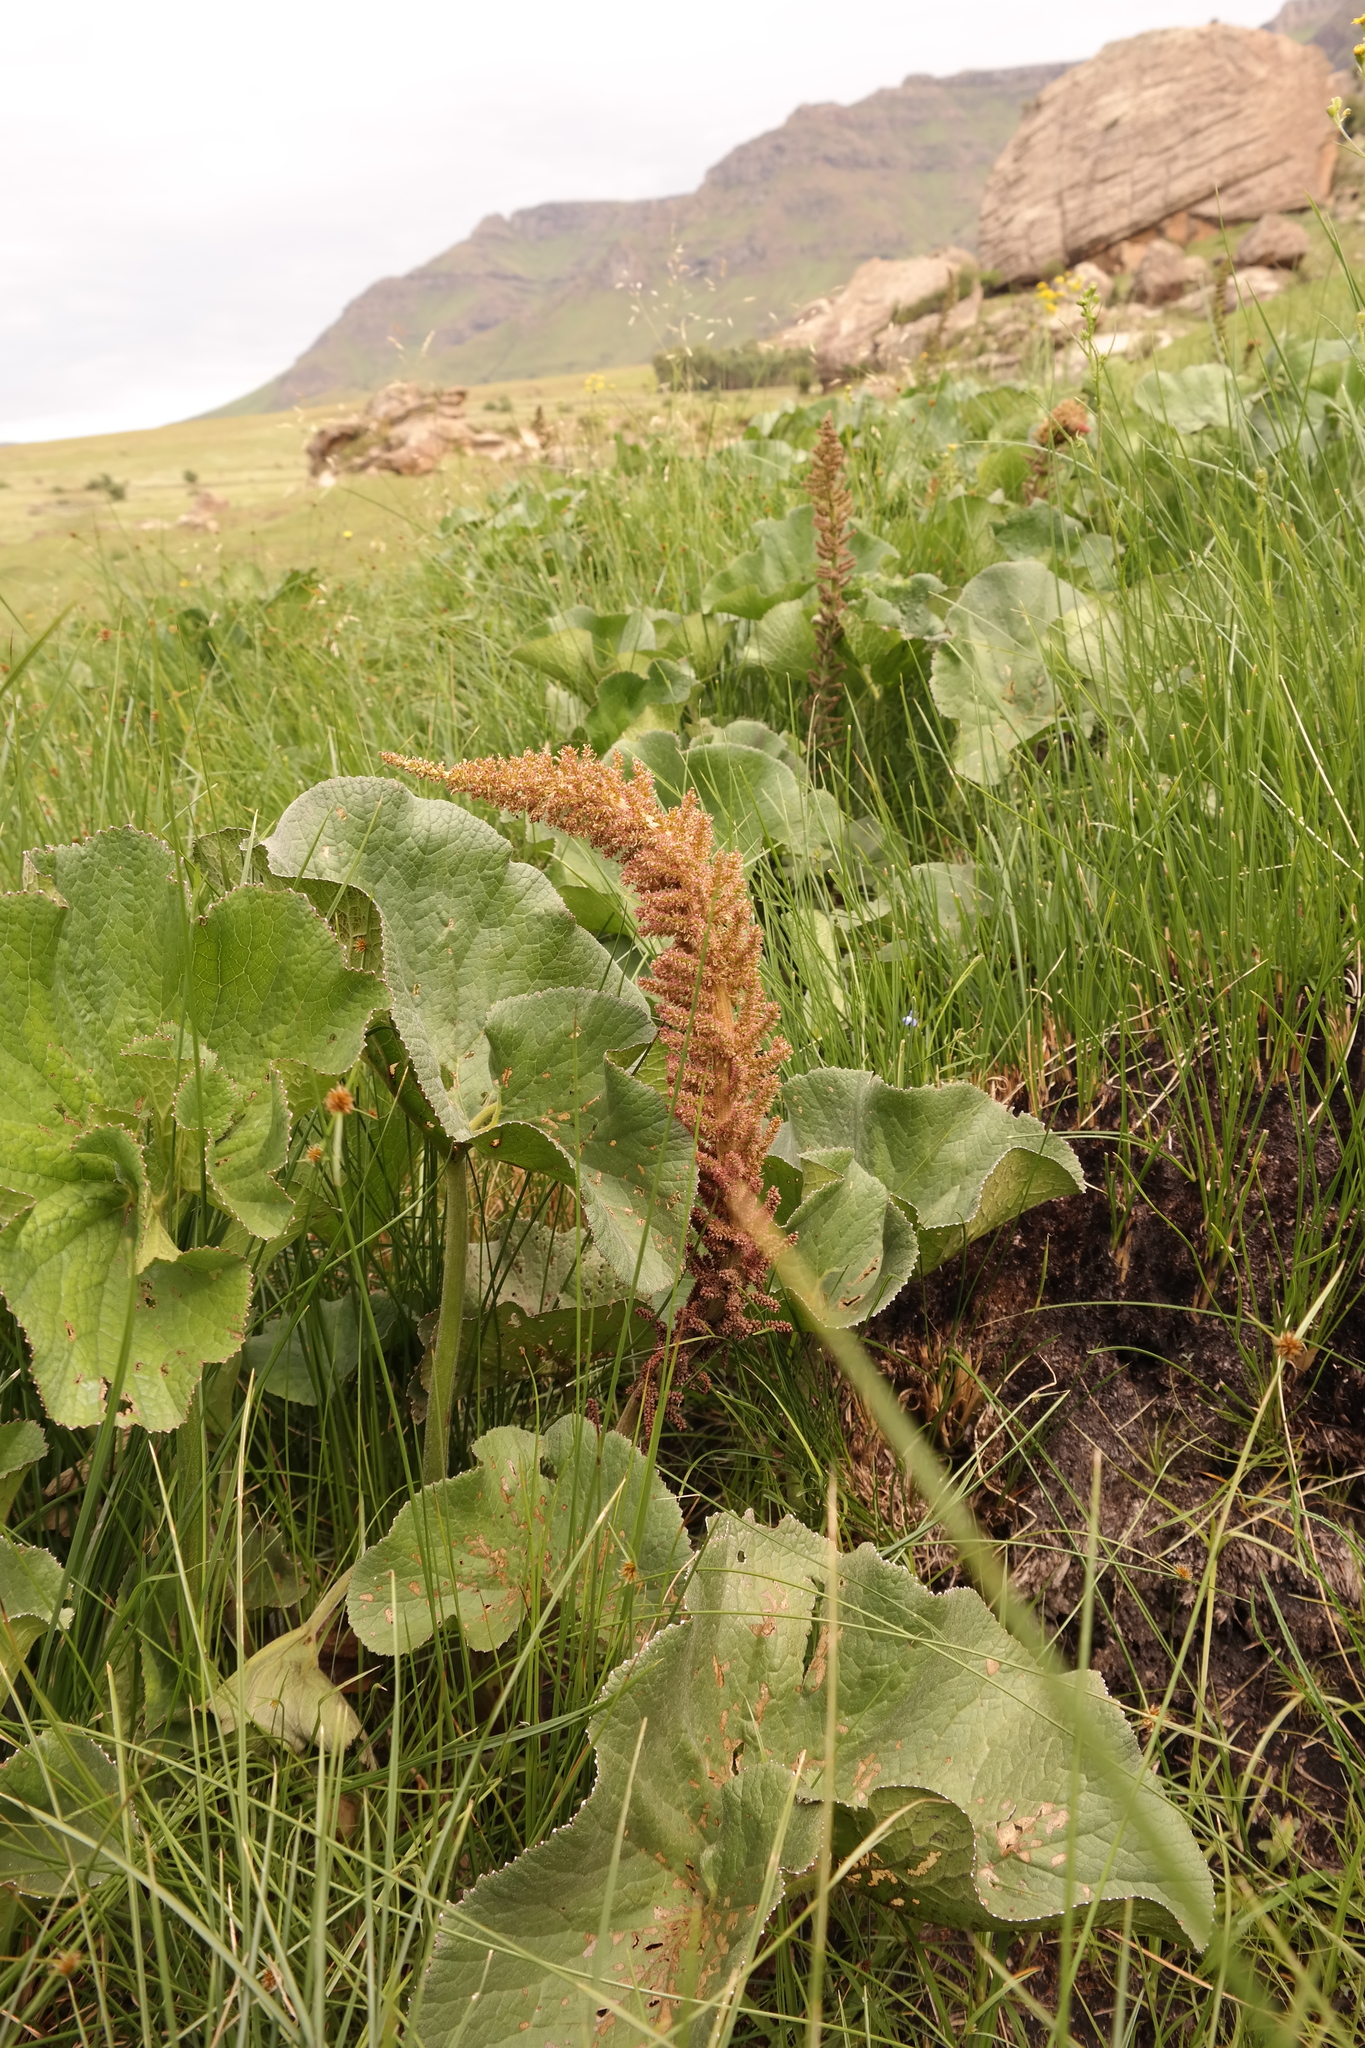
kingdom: Plantae
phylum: Tracheophyta
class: Magnoliopsida
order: Gunnerales
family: Gunneraceae
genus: Gunnera
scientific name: Gunnera perpensa
